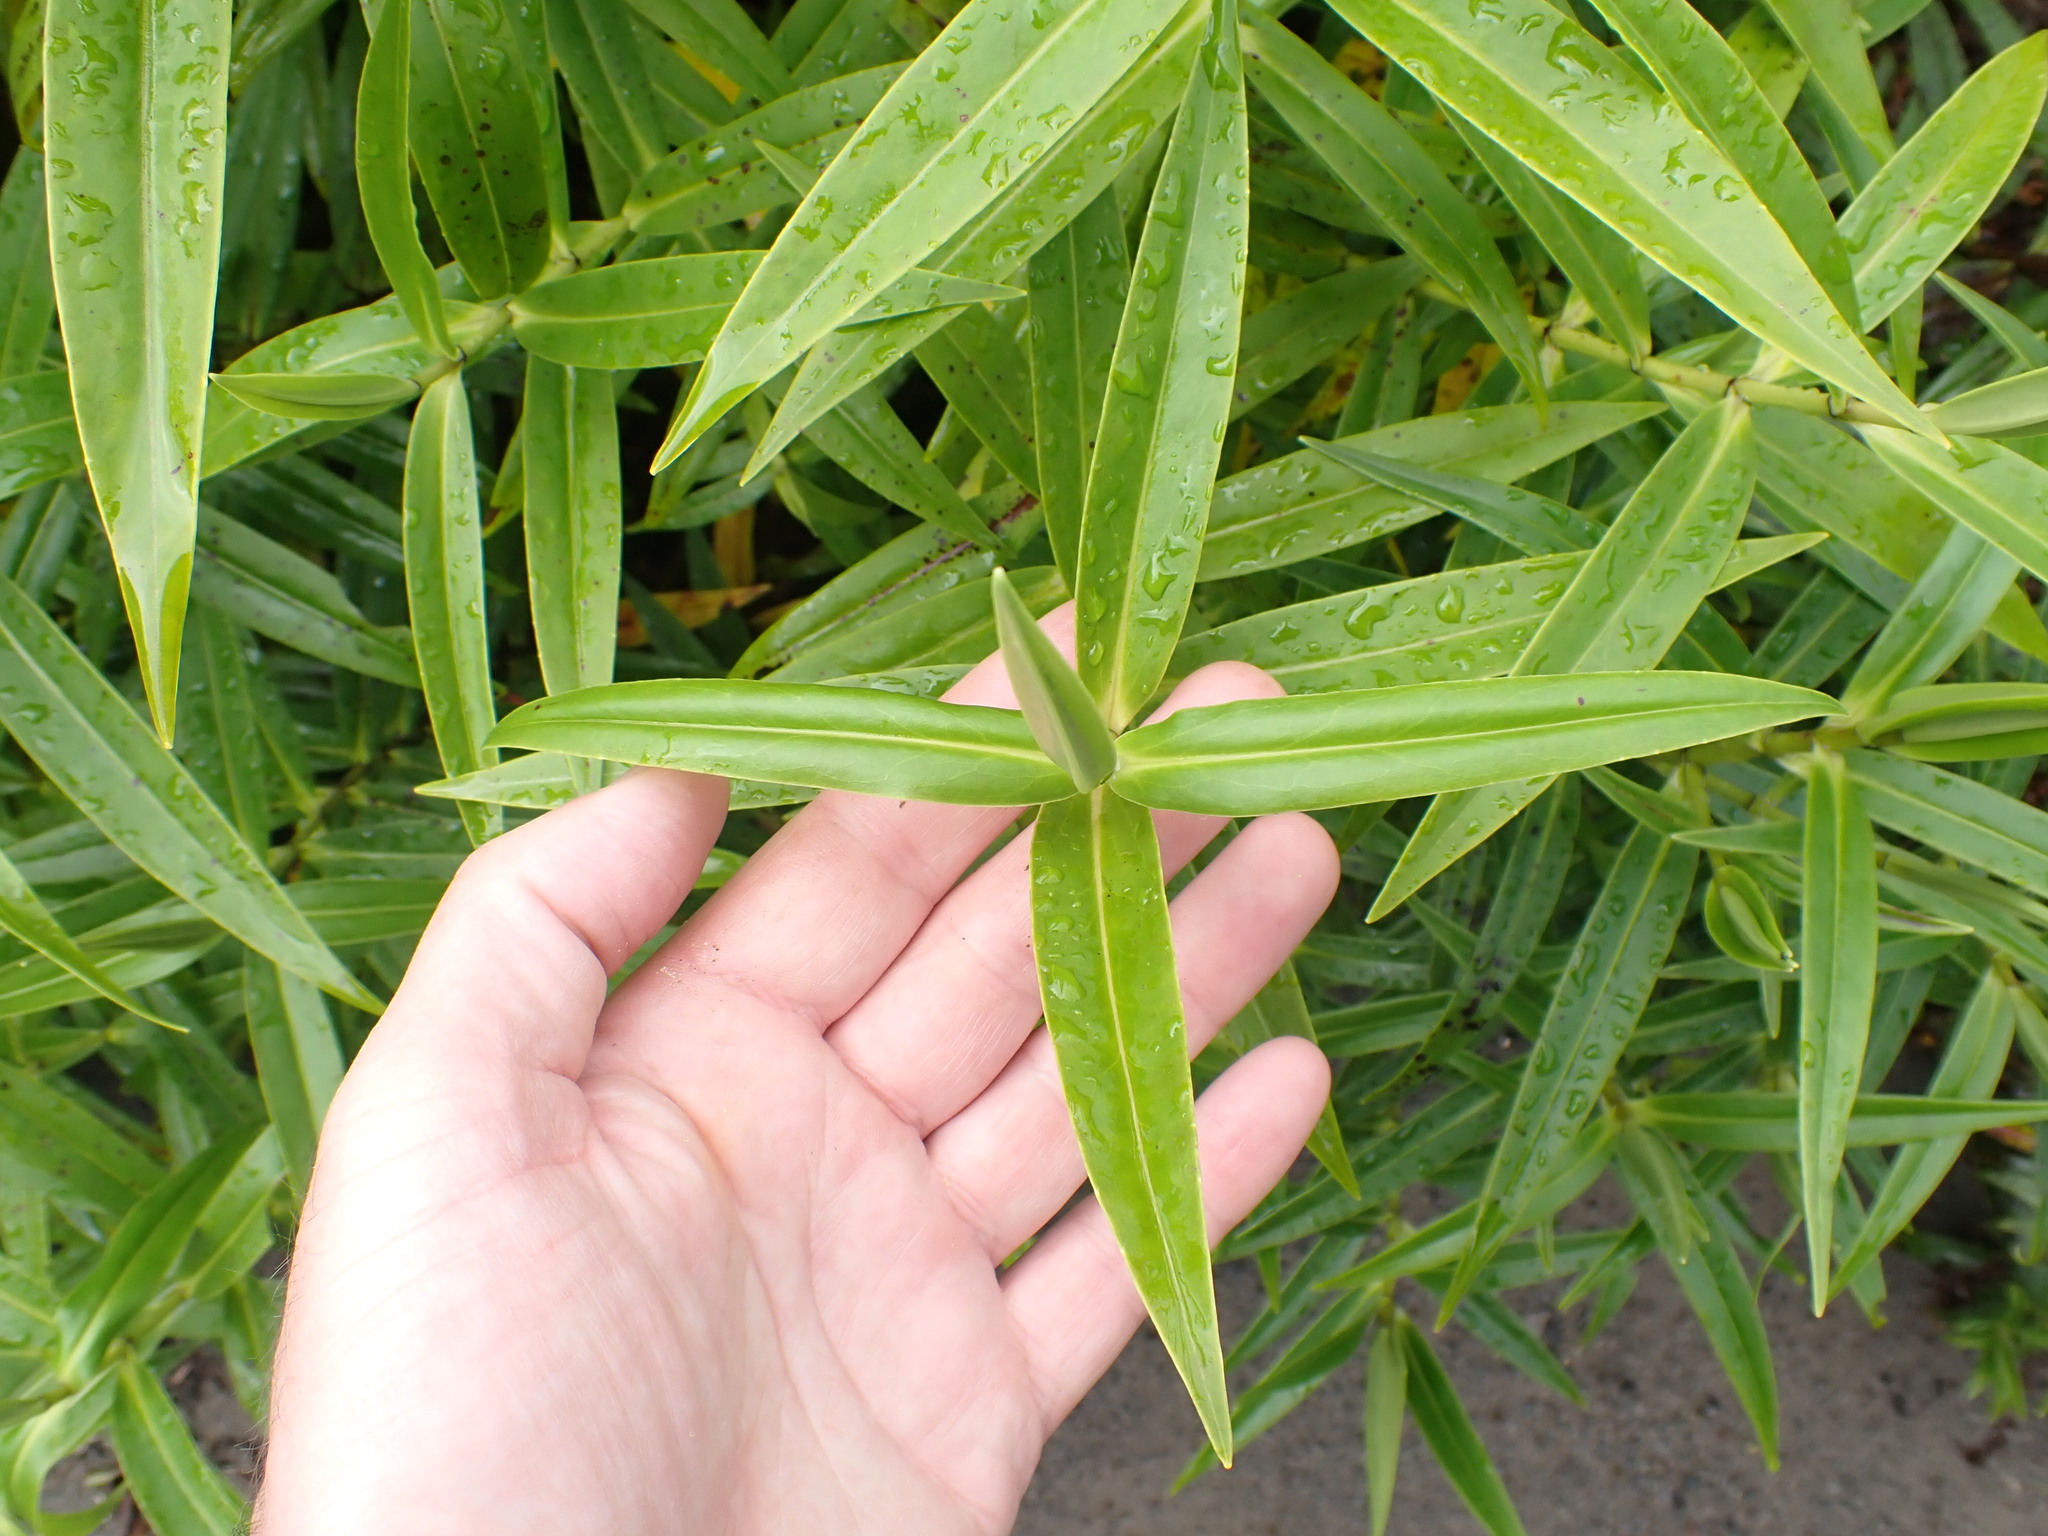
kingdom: Plantae
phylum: Tracheophyta
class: Magnoliopsida
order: Lamiales
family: Plantaginaceae
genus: Veronica
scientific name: Veronica stricta
